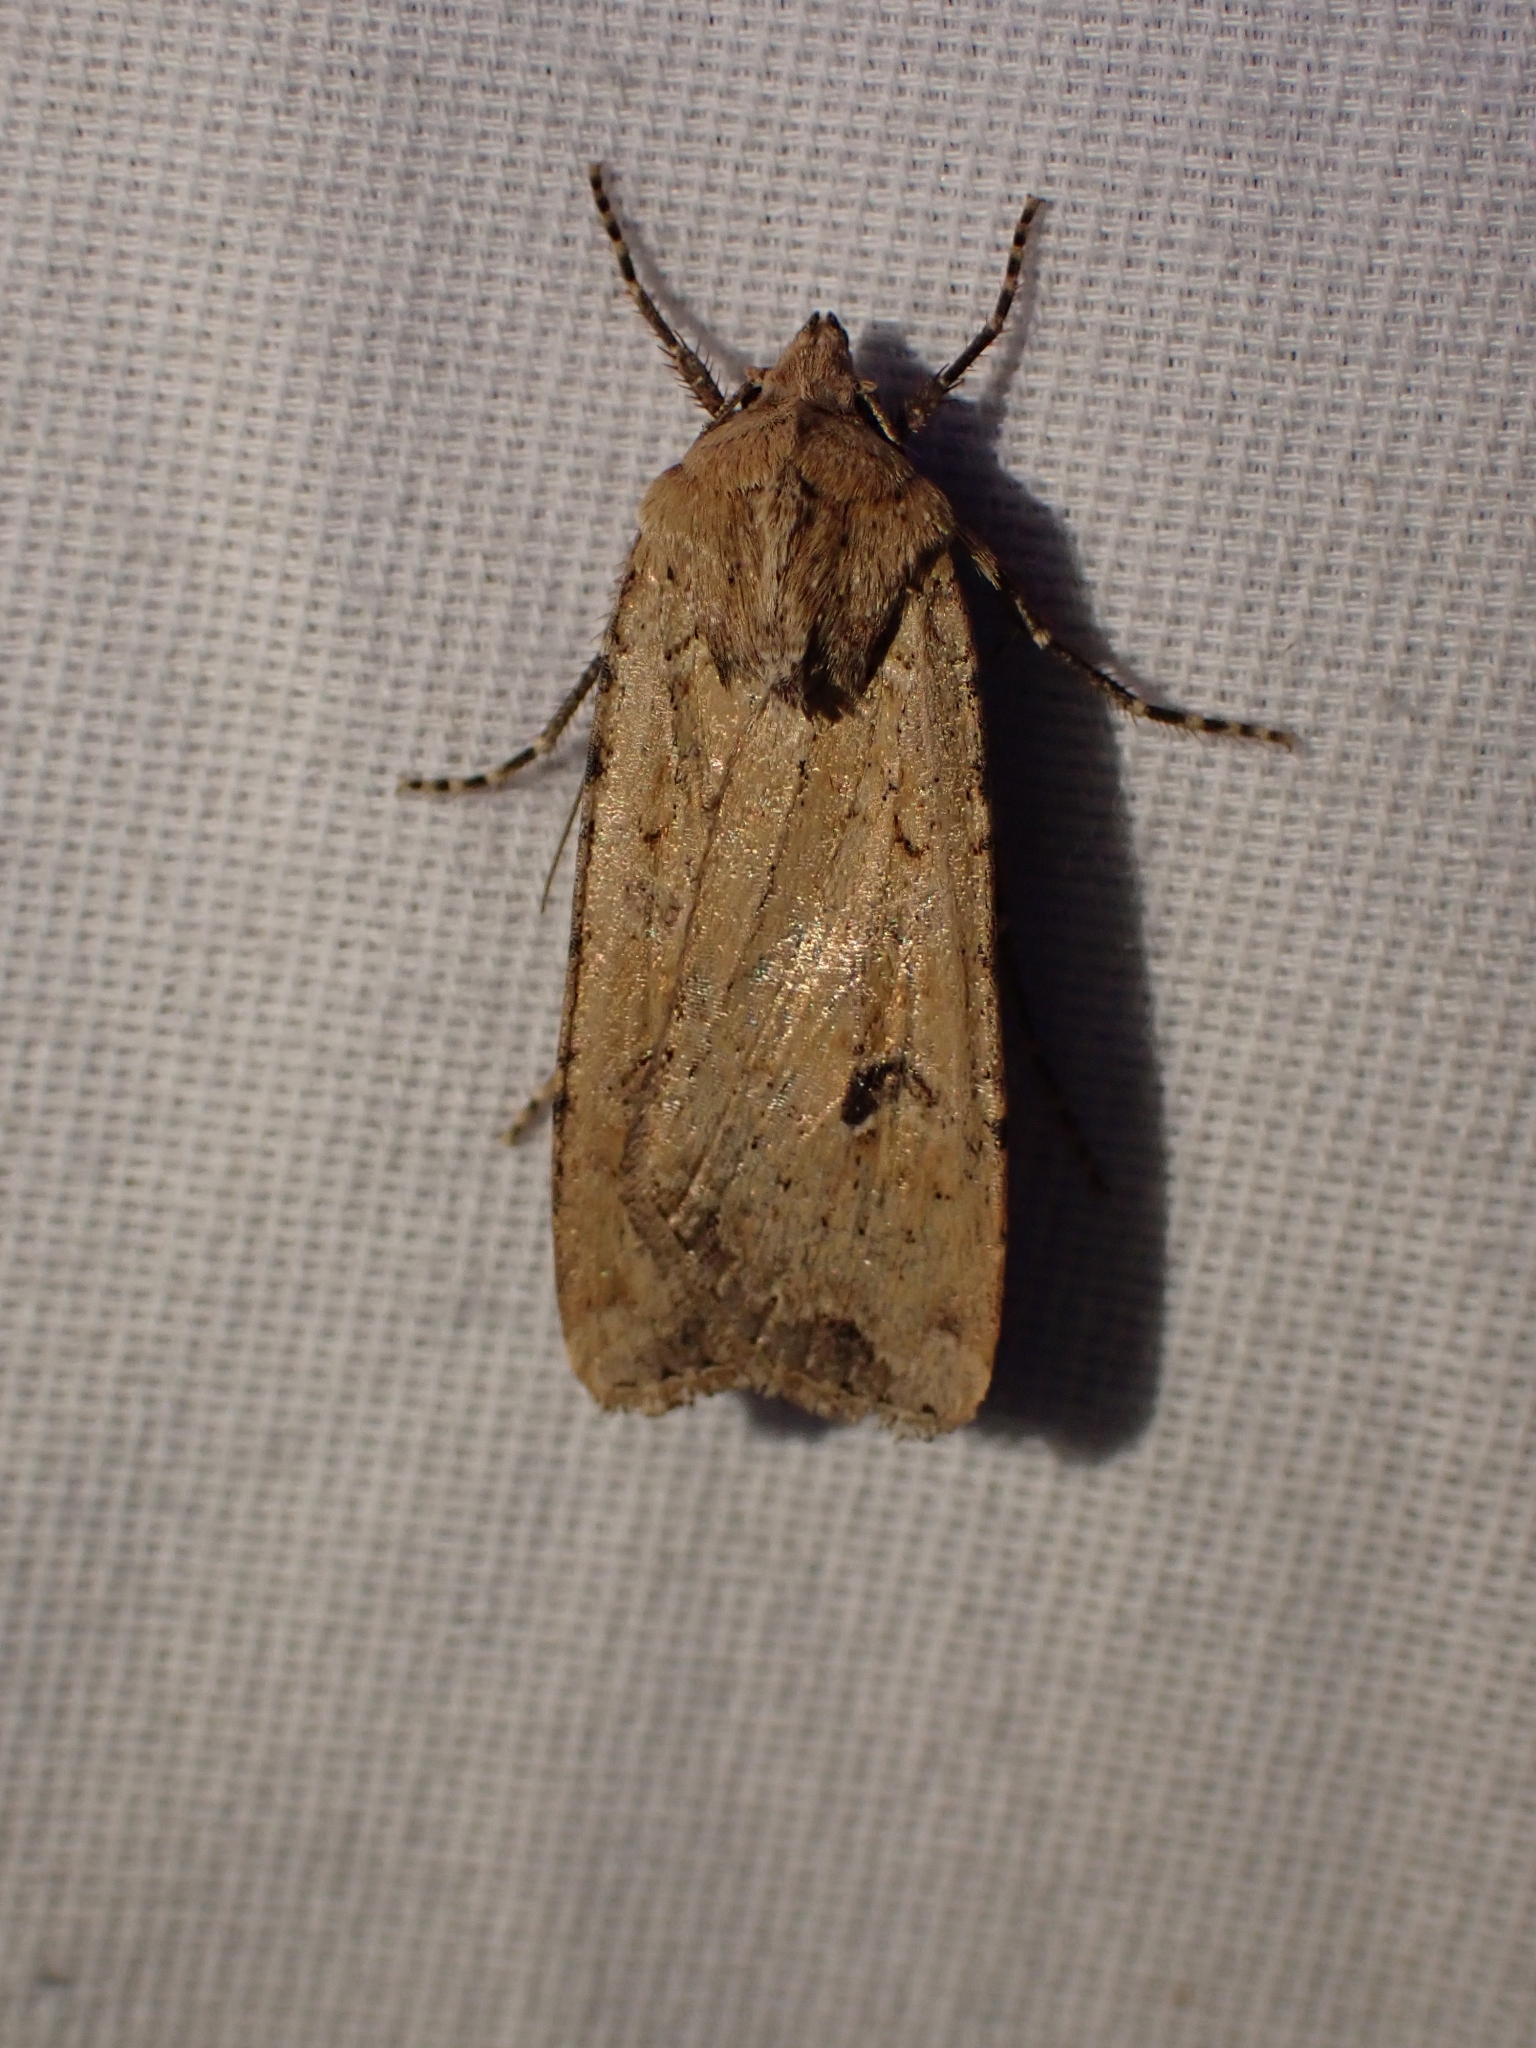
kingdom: Animalia
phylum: Arthropoda
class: Insecta
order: Lepidoptera
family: Noctuidae
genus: Euxoa
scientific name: Euxoa ochrogaster
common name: Red-backed cutworm moth
